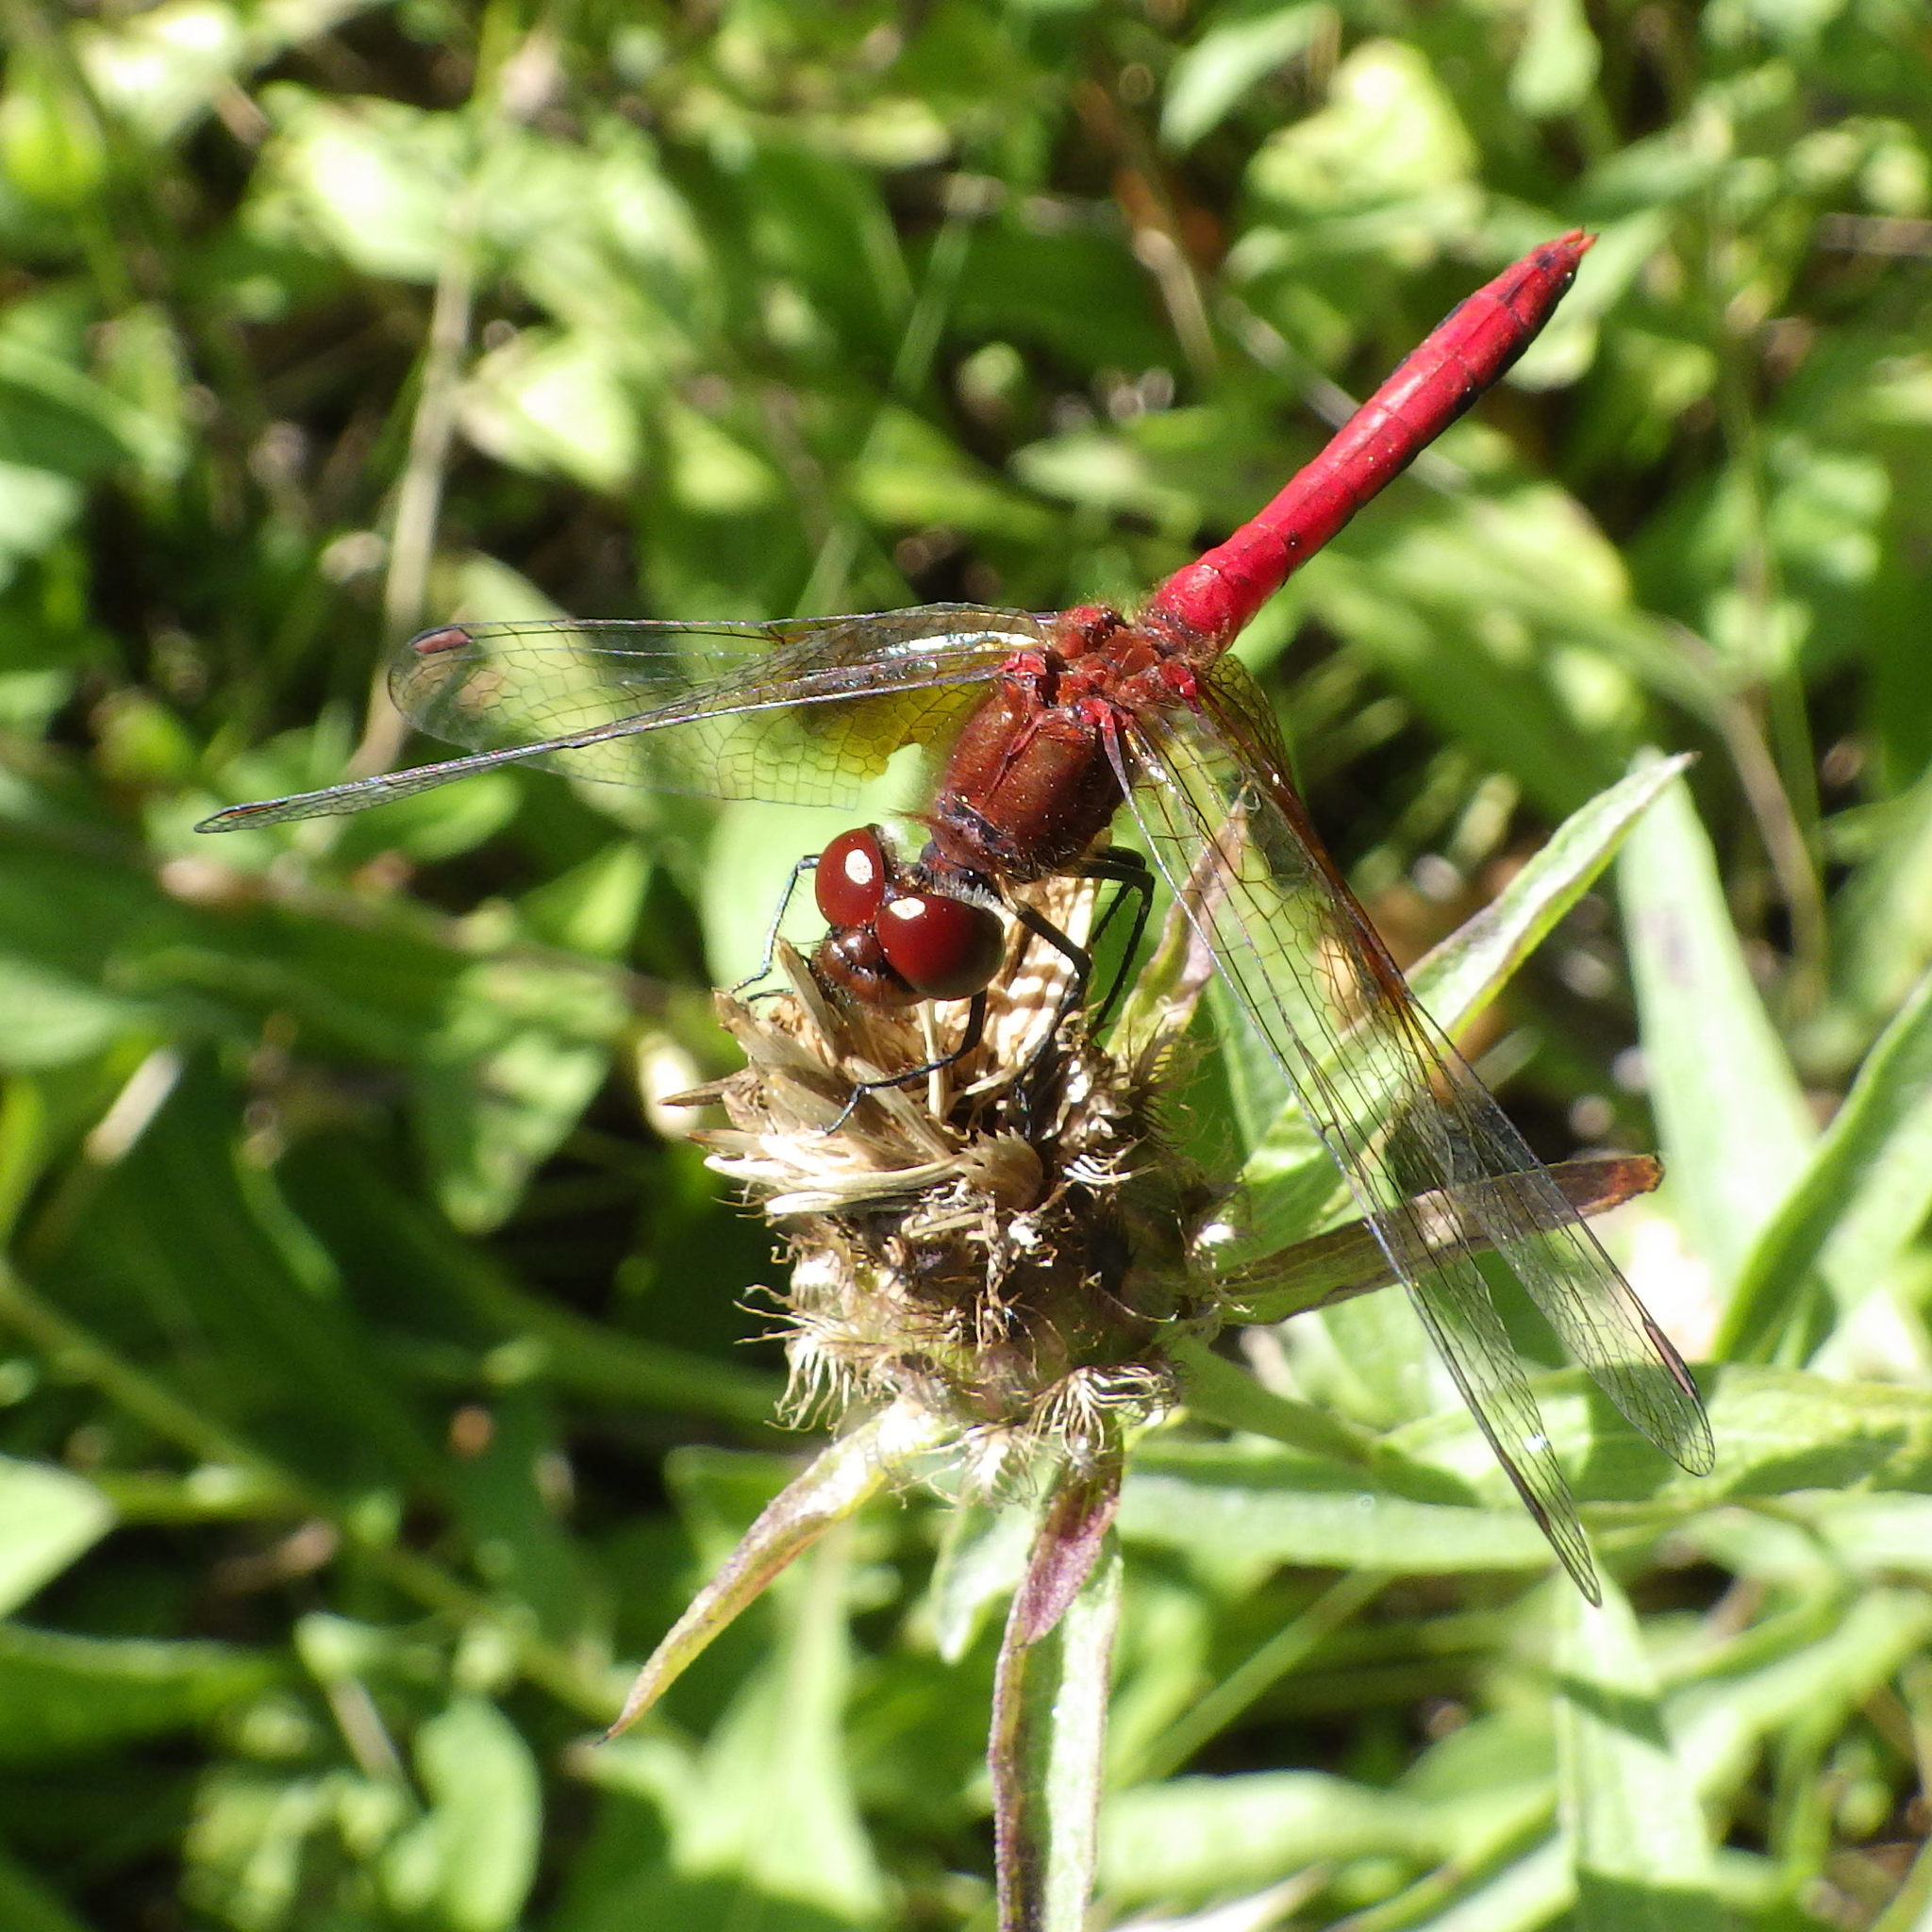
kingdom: Animalia
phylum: Arthropoda
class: Insecta
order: Odonata
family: Libellulidae
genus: Sympetrum
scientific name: Sympetrum semicinctum
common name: Band-winged meadowhawk
